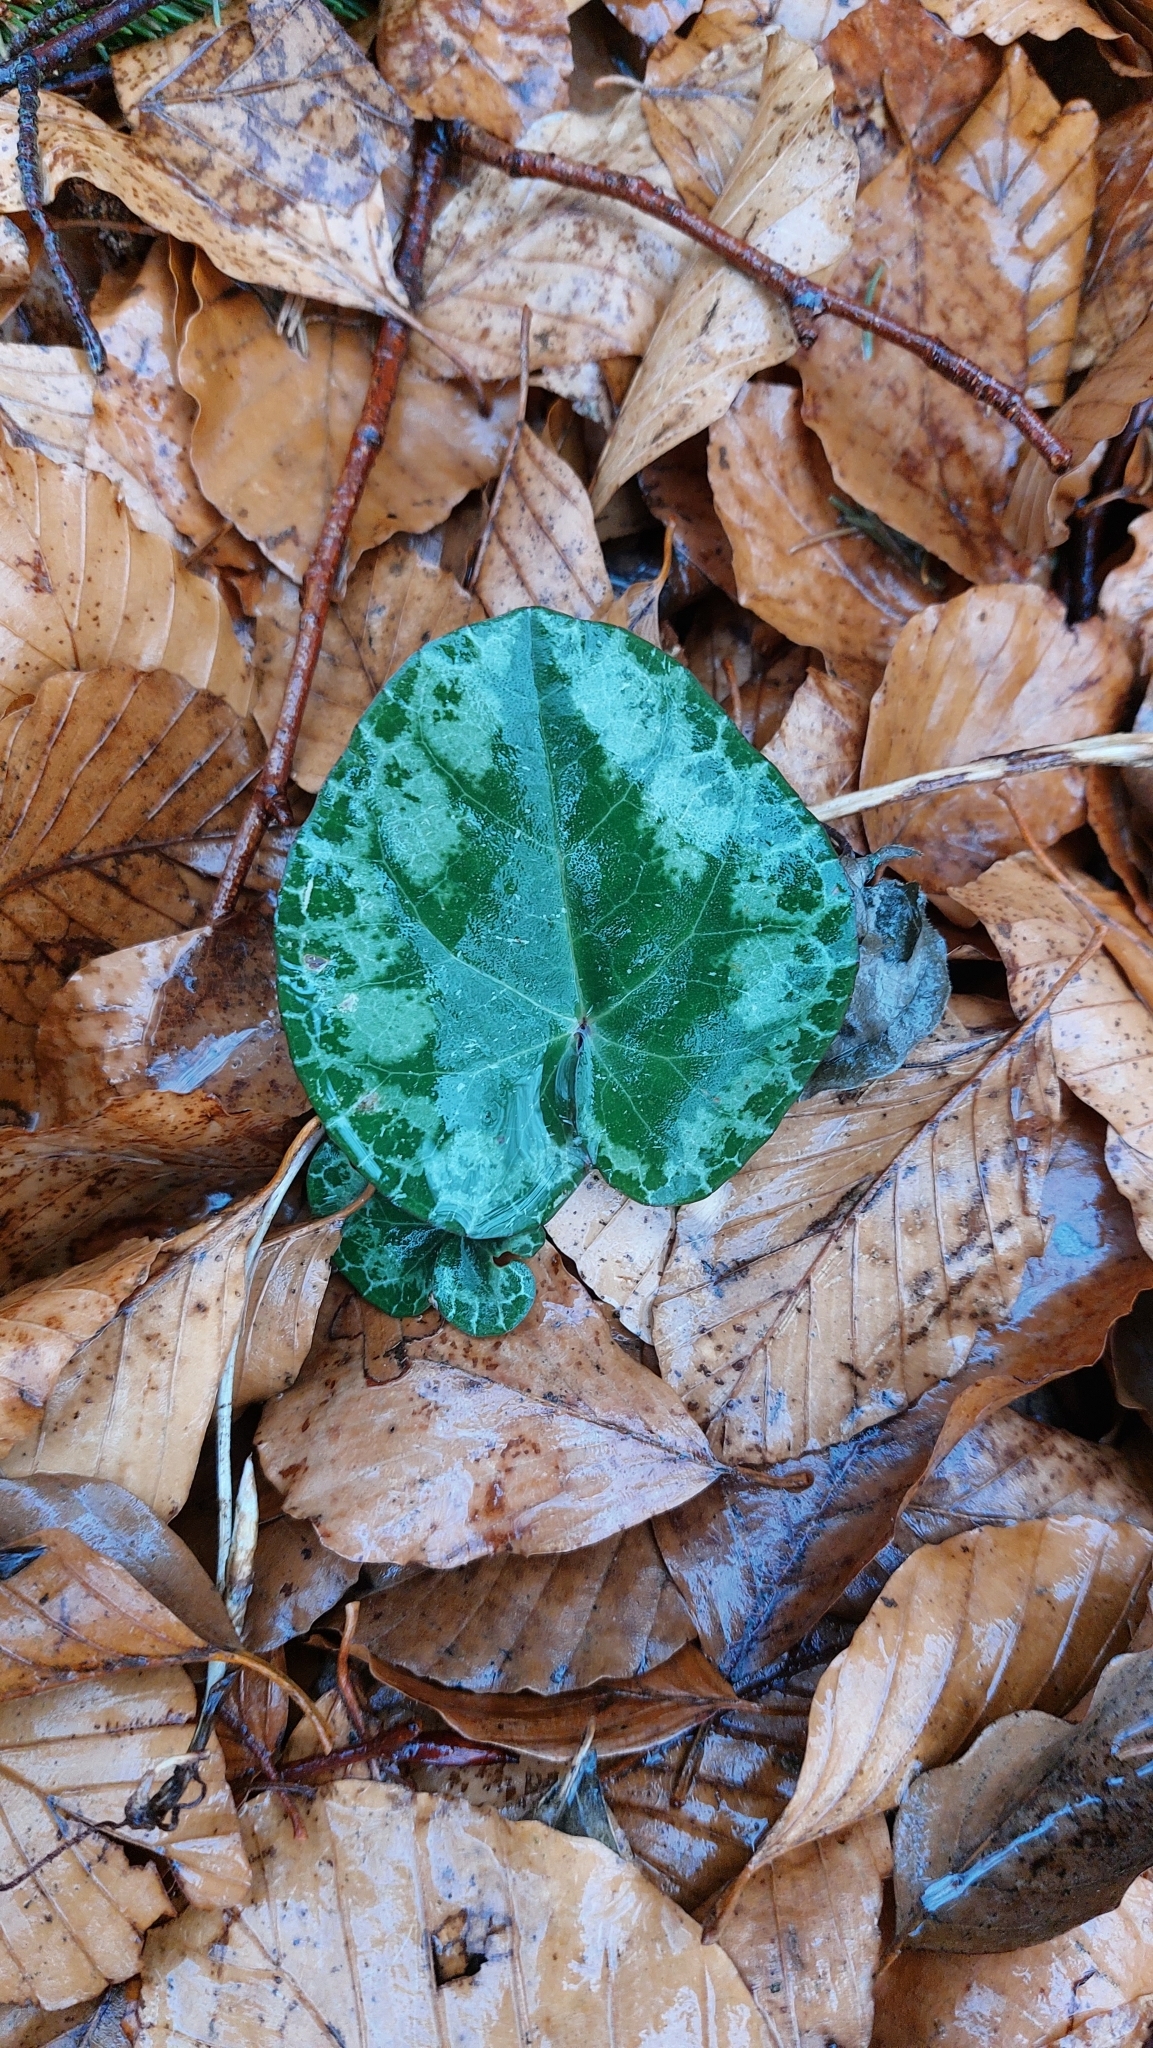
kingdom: Plantae
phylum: Tracheophyta
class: Magnoliopsida
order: Ericales
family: Primulaceae
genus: Cyclamen
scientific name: Cyclamen purpurascens
